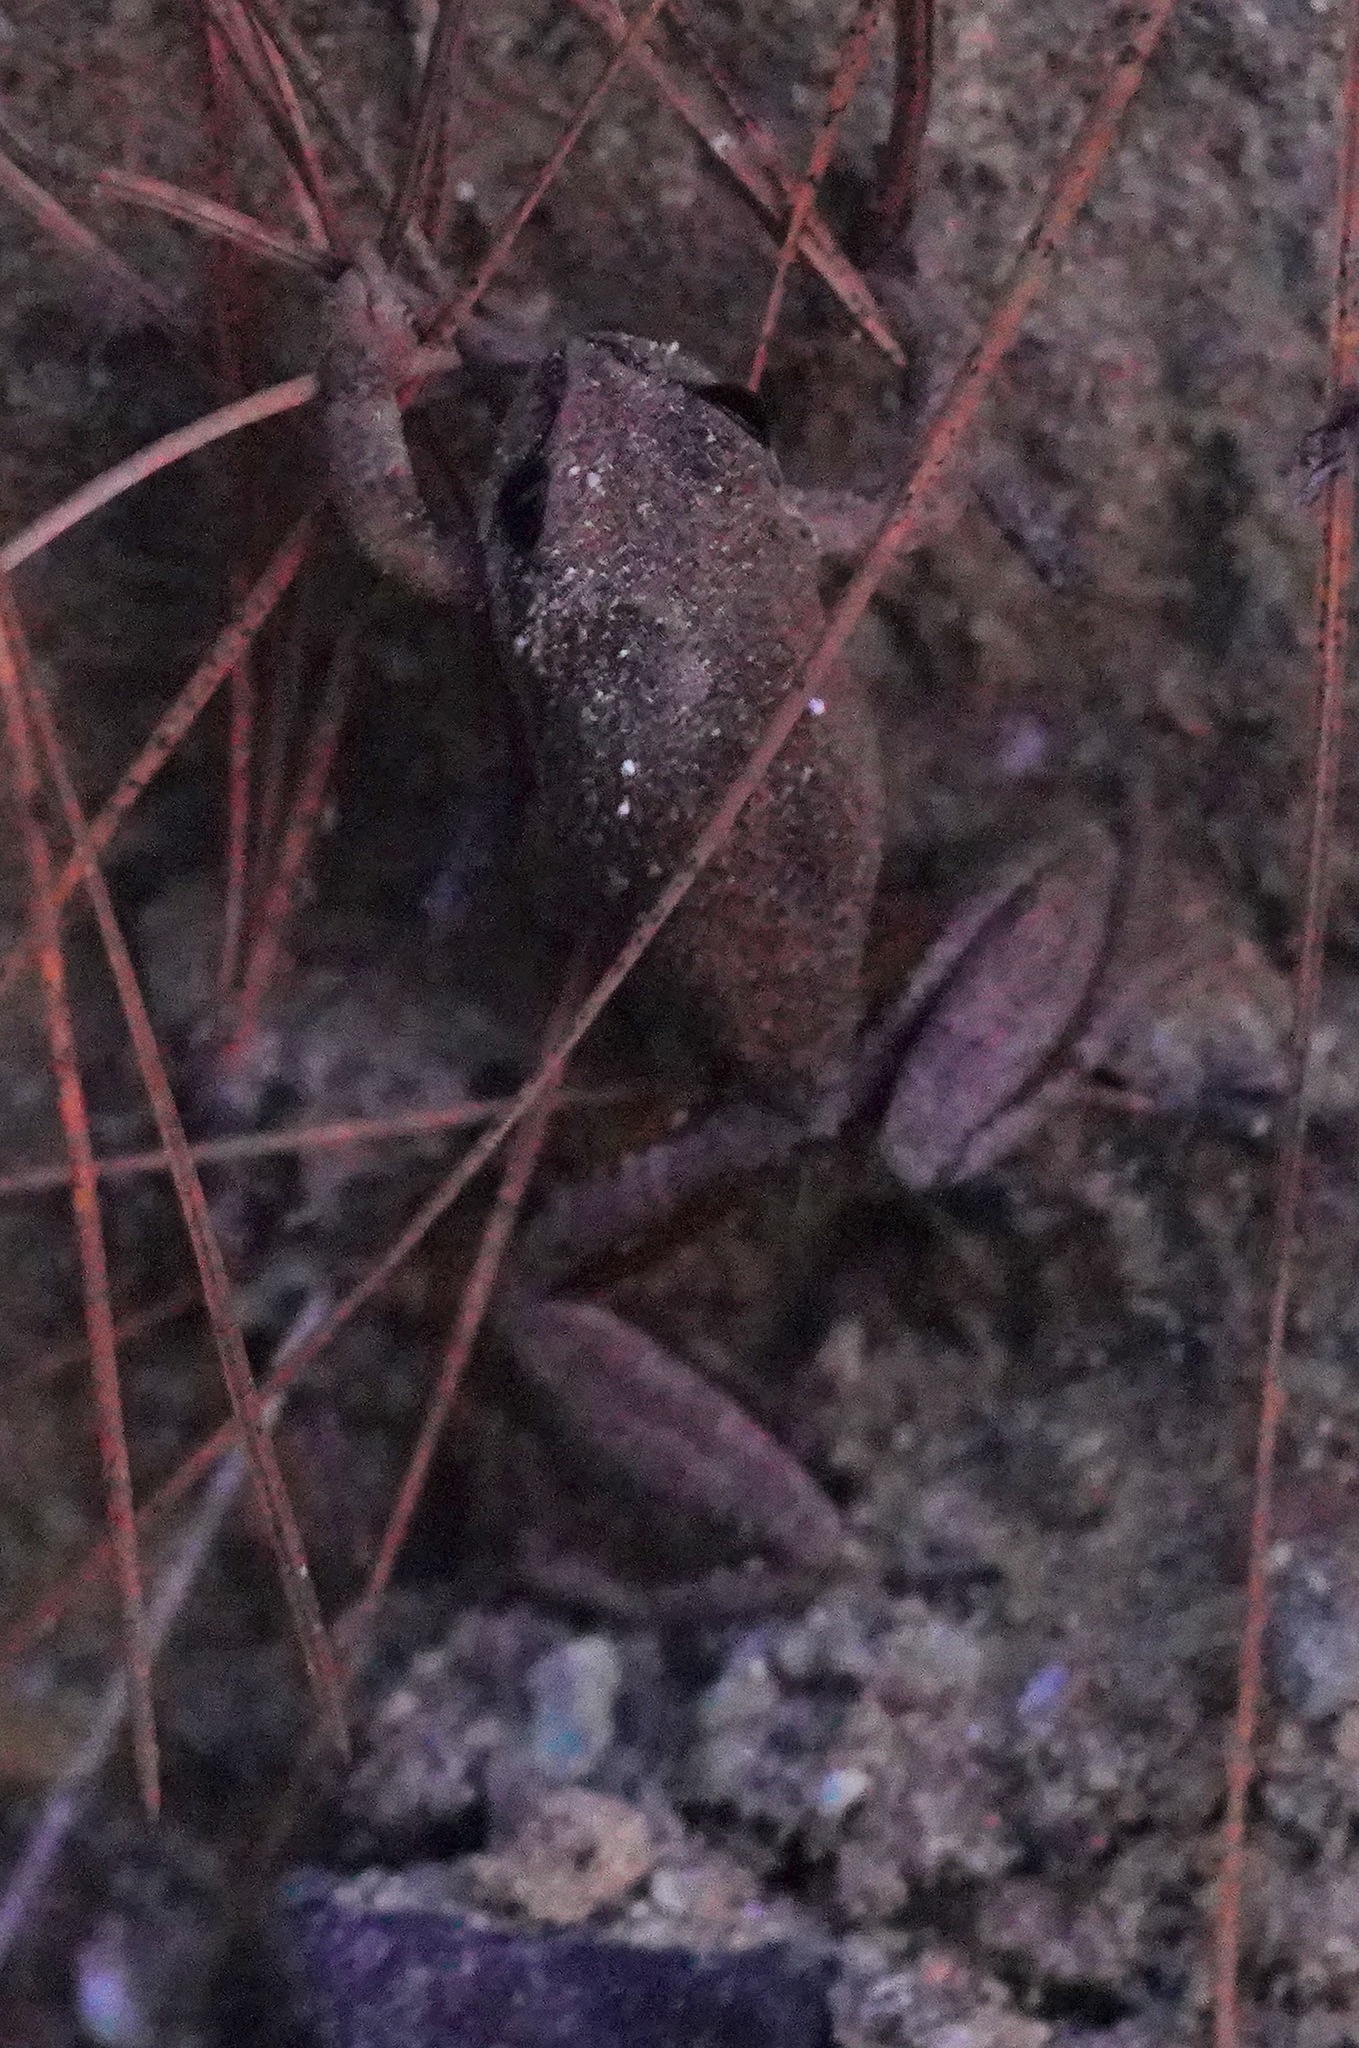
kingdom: Animalia
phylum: Chordata
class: Amphibia
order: Anura
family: Hylidae
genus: Pseudacris
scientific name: Pseudacris regilla
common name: Pacific chorus frog
